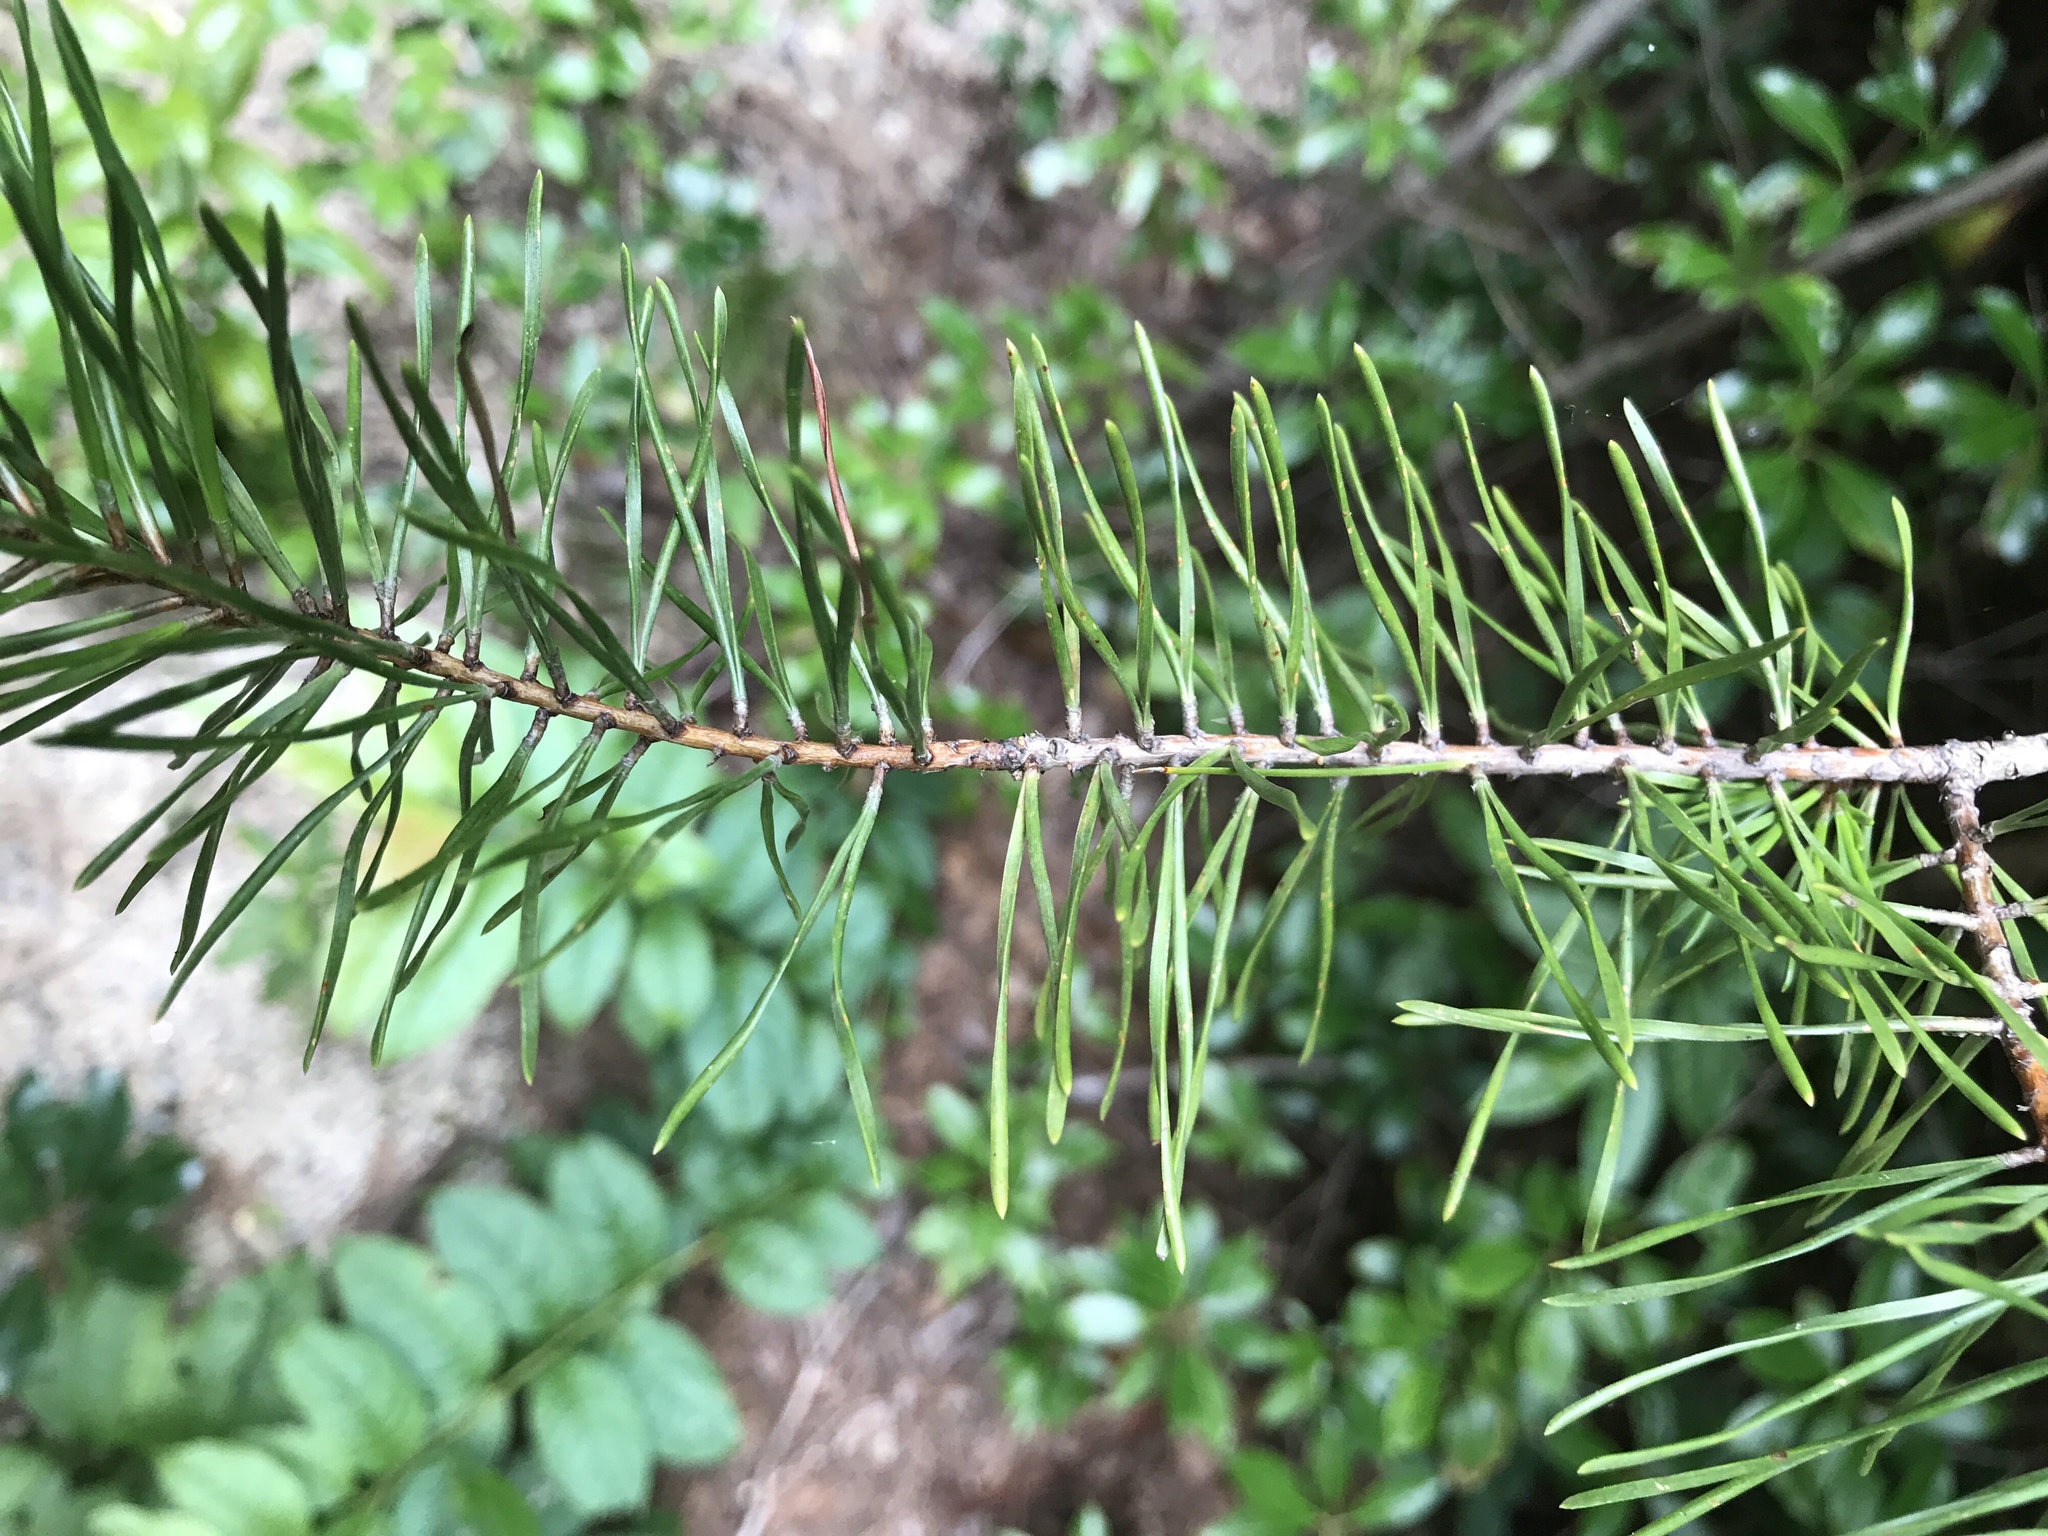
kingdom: Plantae
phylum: Tracheophyta
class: Pinopsida
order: Pinales
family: Pinaceae
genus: Pinus
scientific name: Pinus virginiana
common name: Scrub pine
